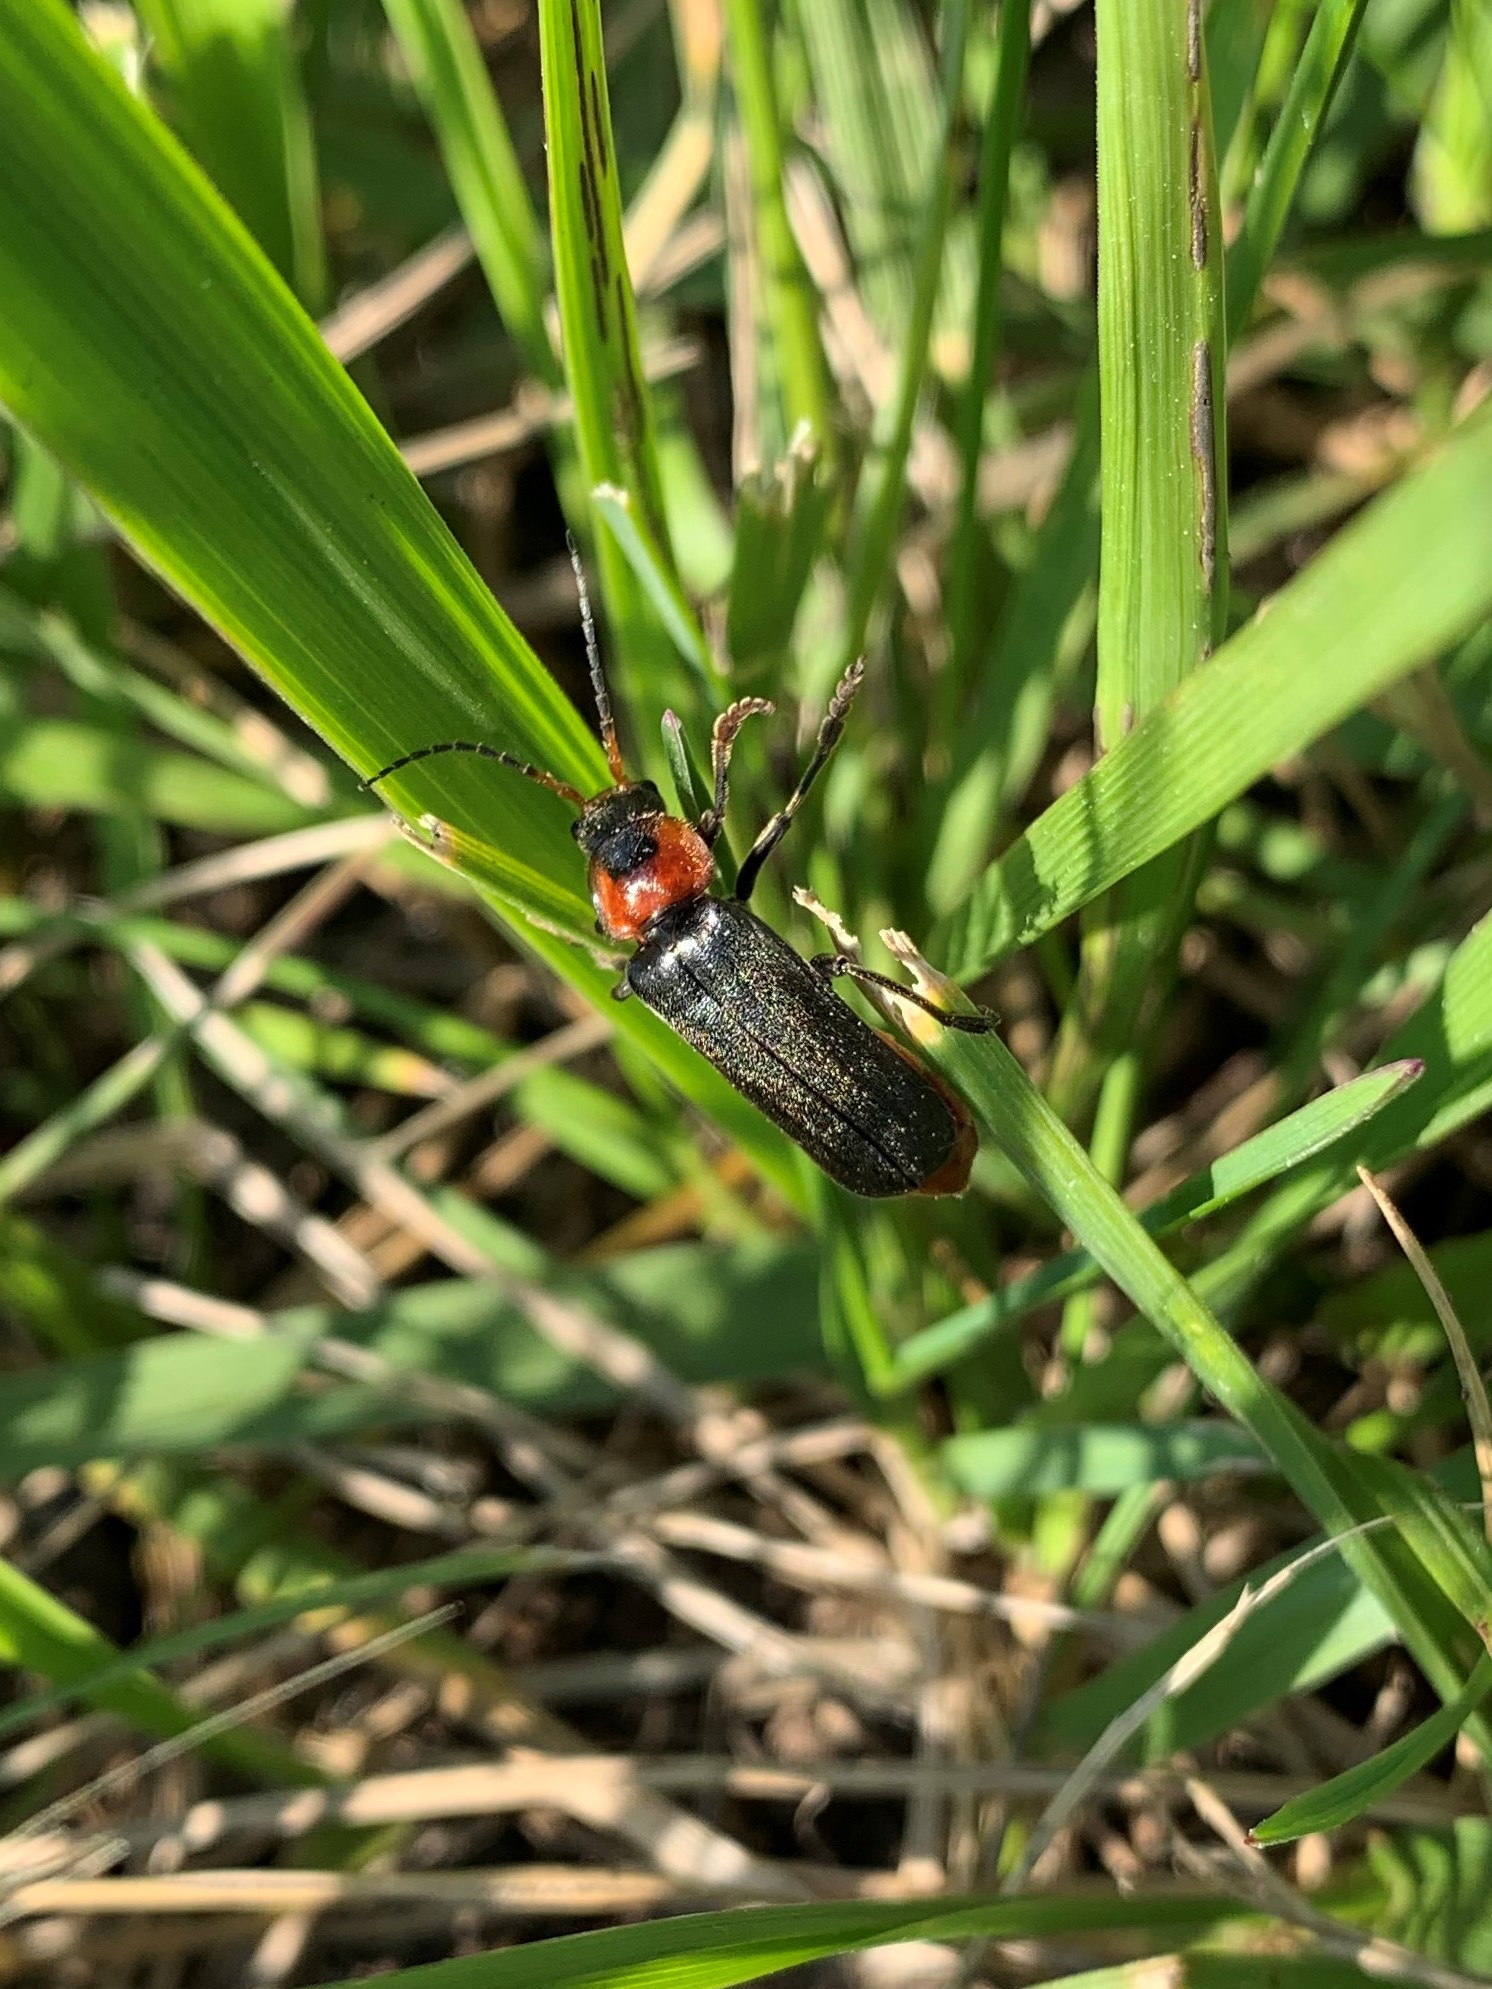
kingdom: Animalia
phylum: Arthropoda
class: Insecta
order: Coleoptera
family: Cantharidae
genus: Cantharis
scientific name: Cantharis fusca
